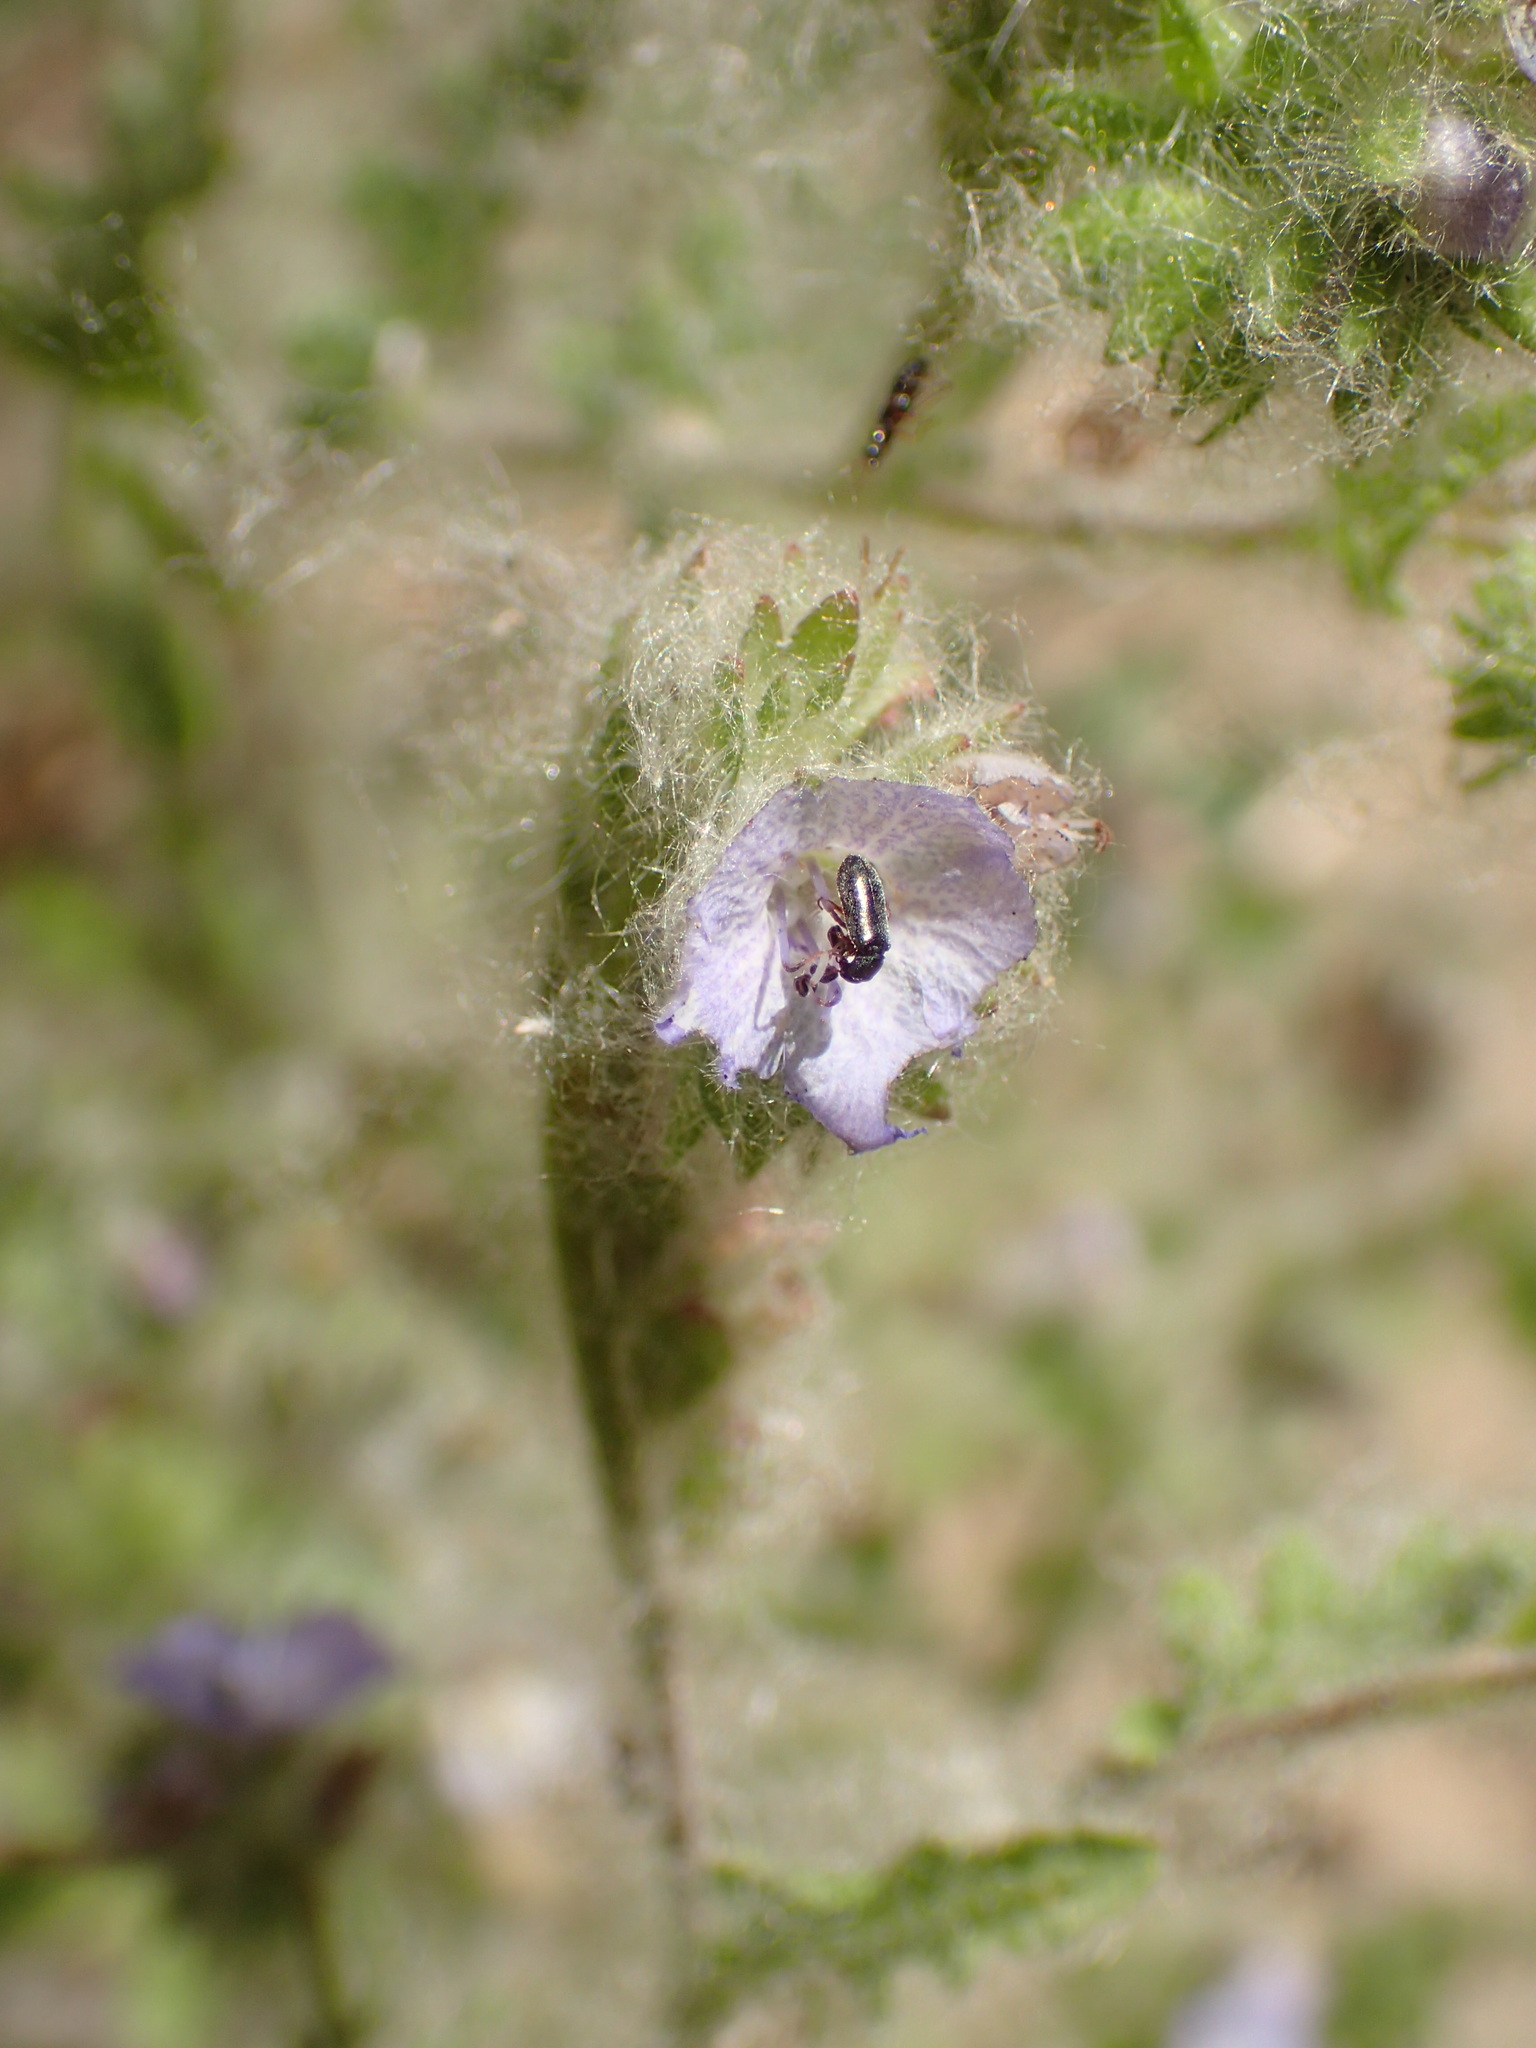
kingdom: Plantae
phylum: Tracheophyta
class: Magnoliopsida
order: Boraginales
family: Hydrophyllaceae
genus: Phacelia
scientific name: Phacelia distans
